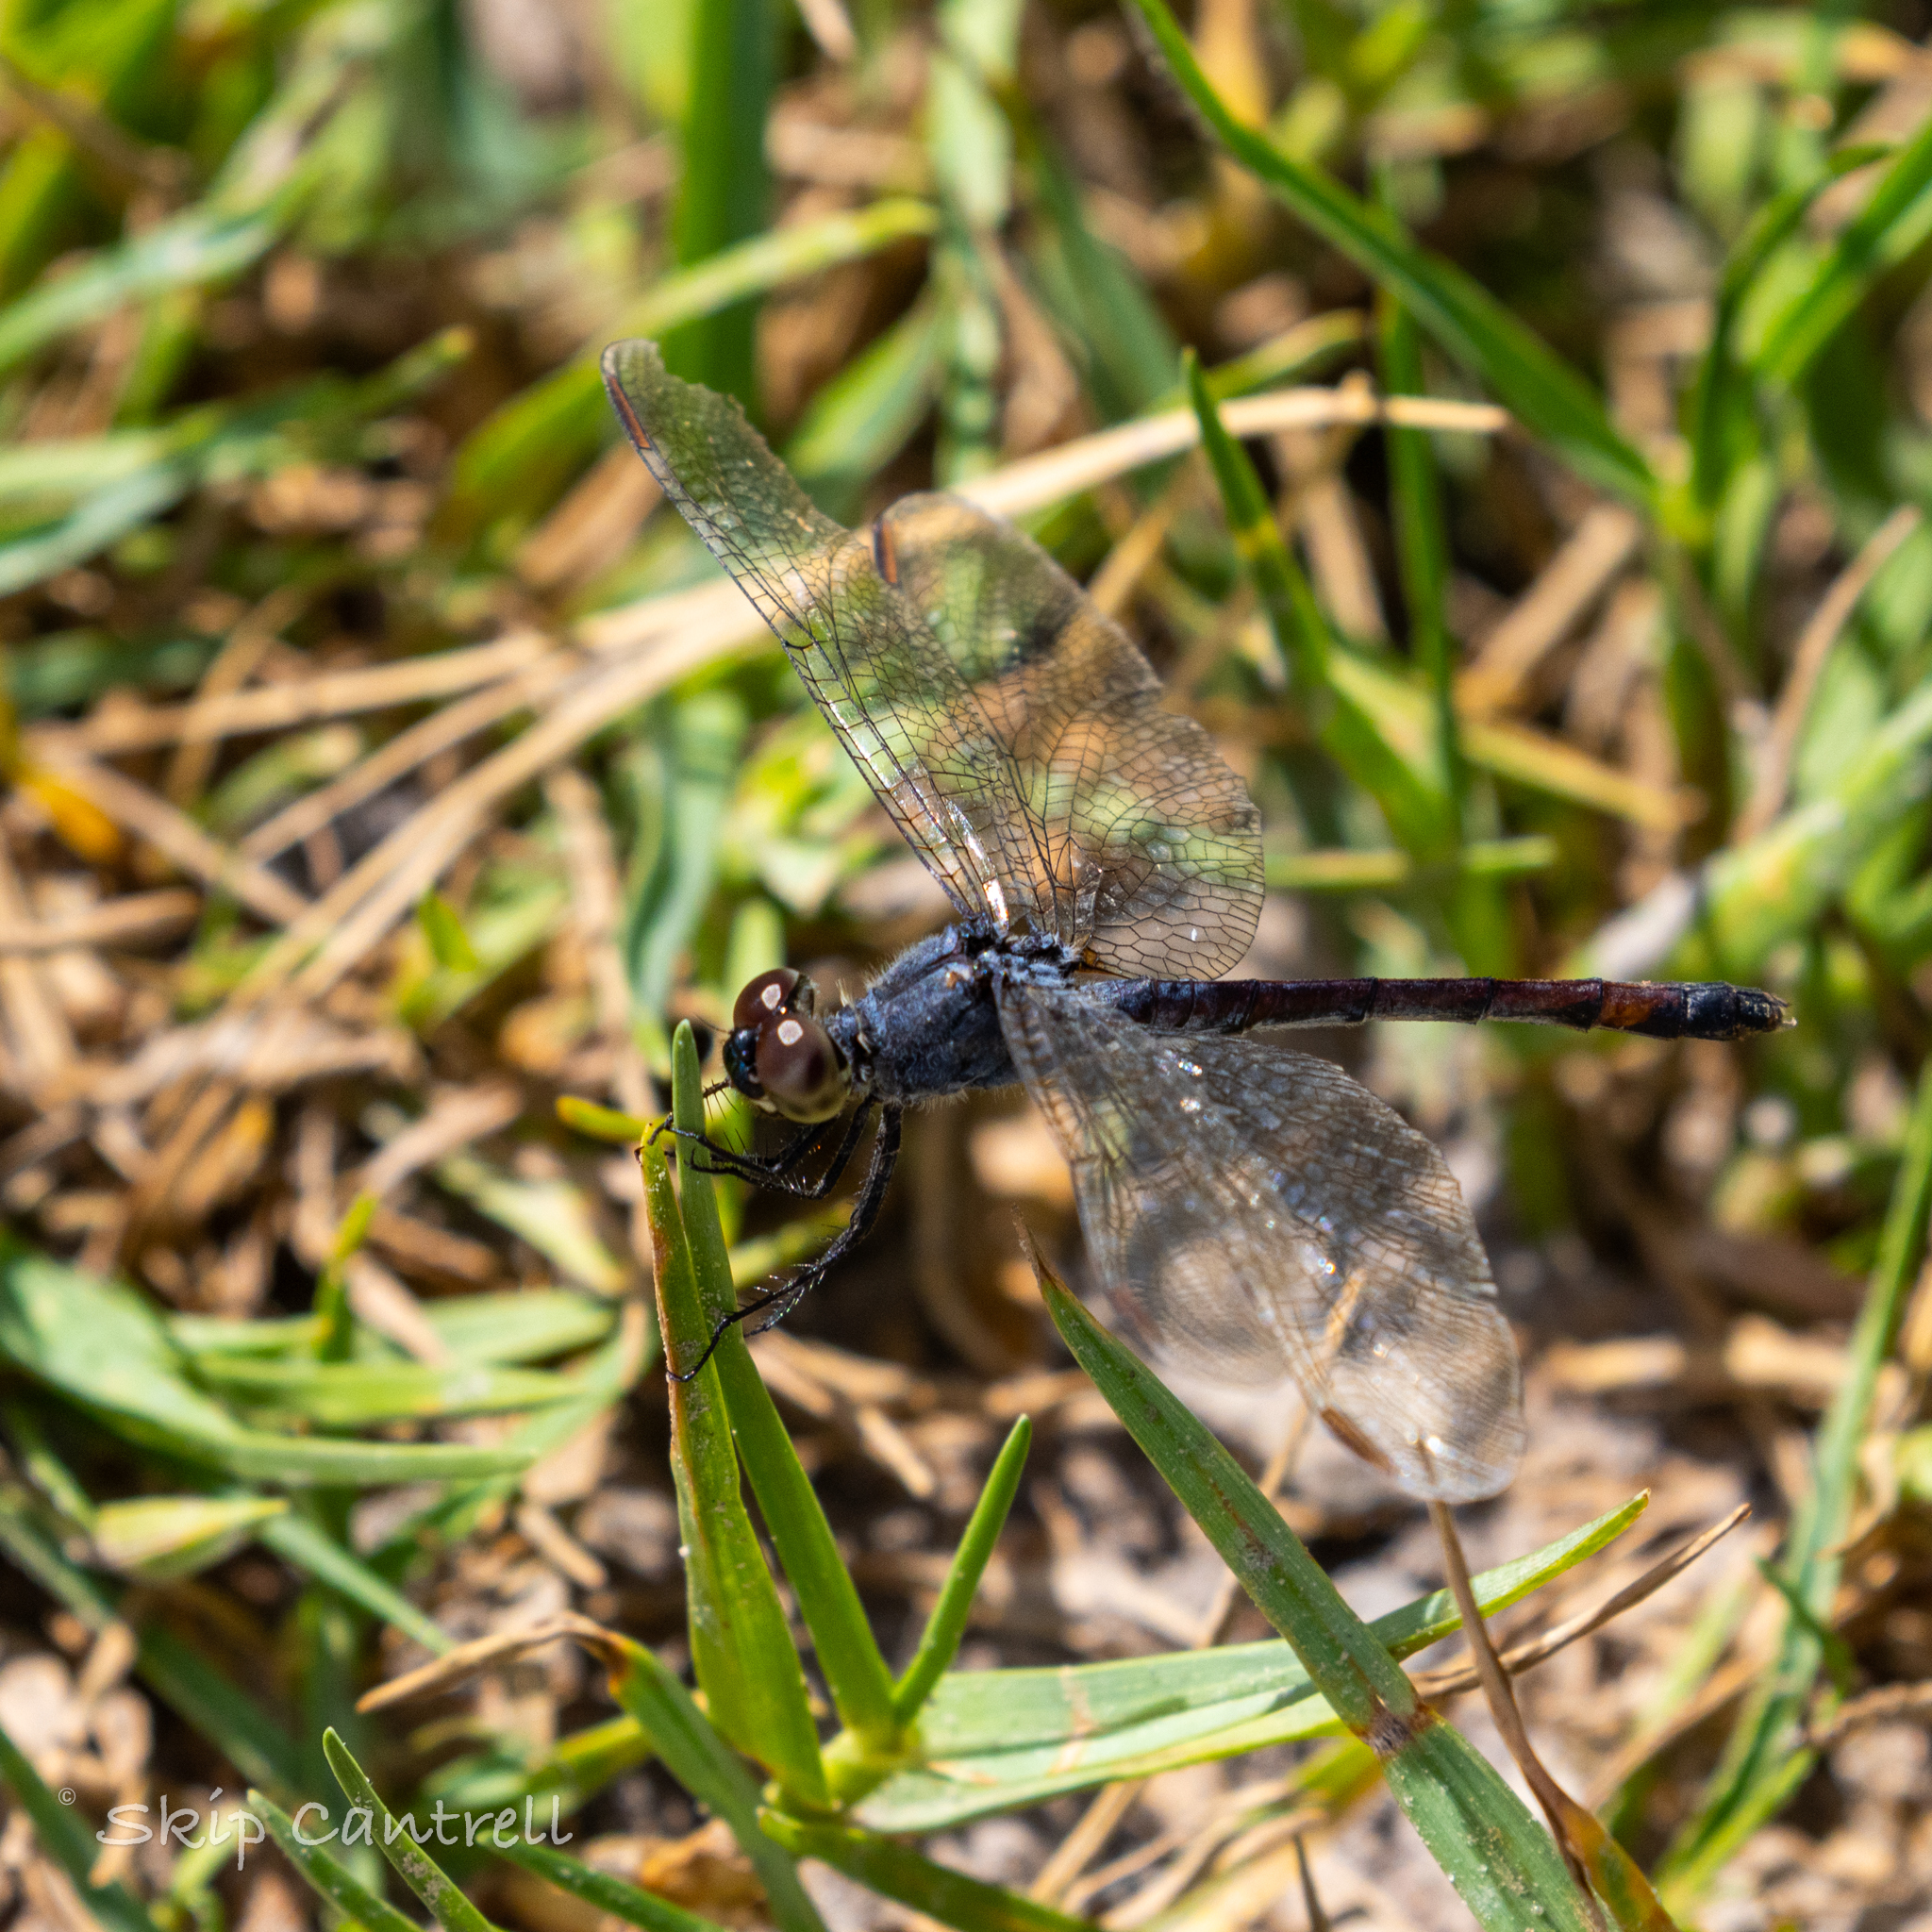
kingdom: Animalia
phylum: Arthropoda
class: Insecta
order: Odonata
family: Libellulidae
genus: Erythrodiplax
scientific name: Erythrodiplax berenice
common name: Seaside dragonlet
